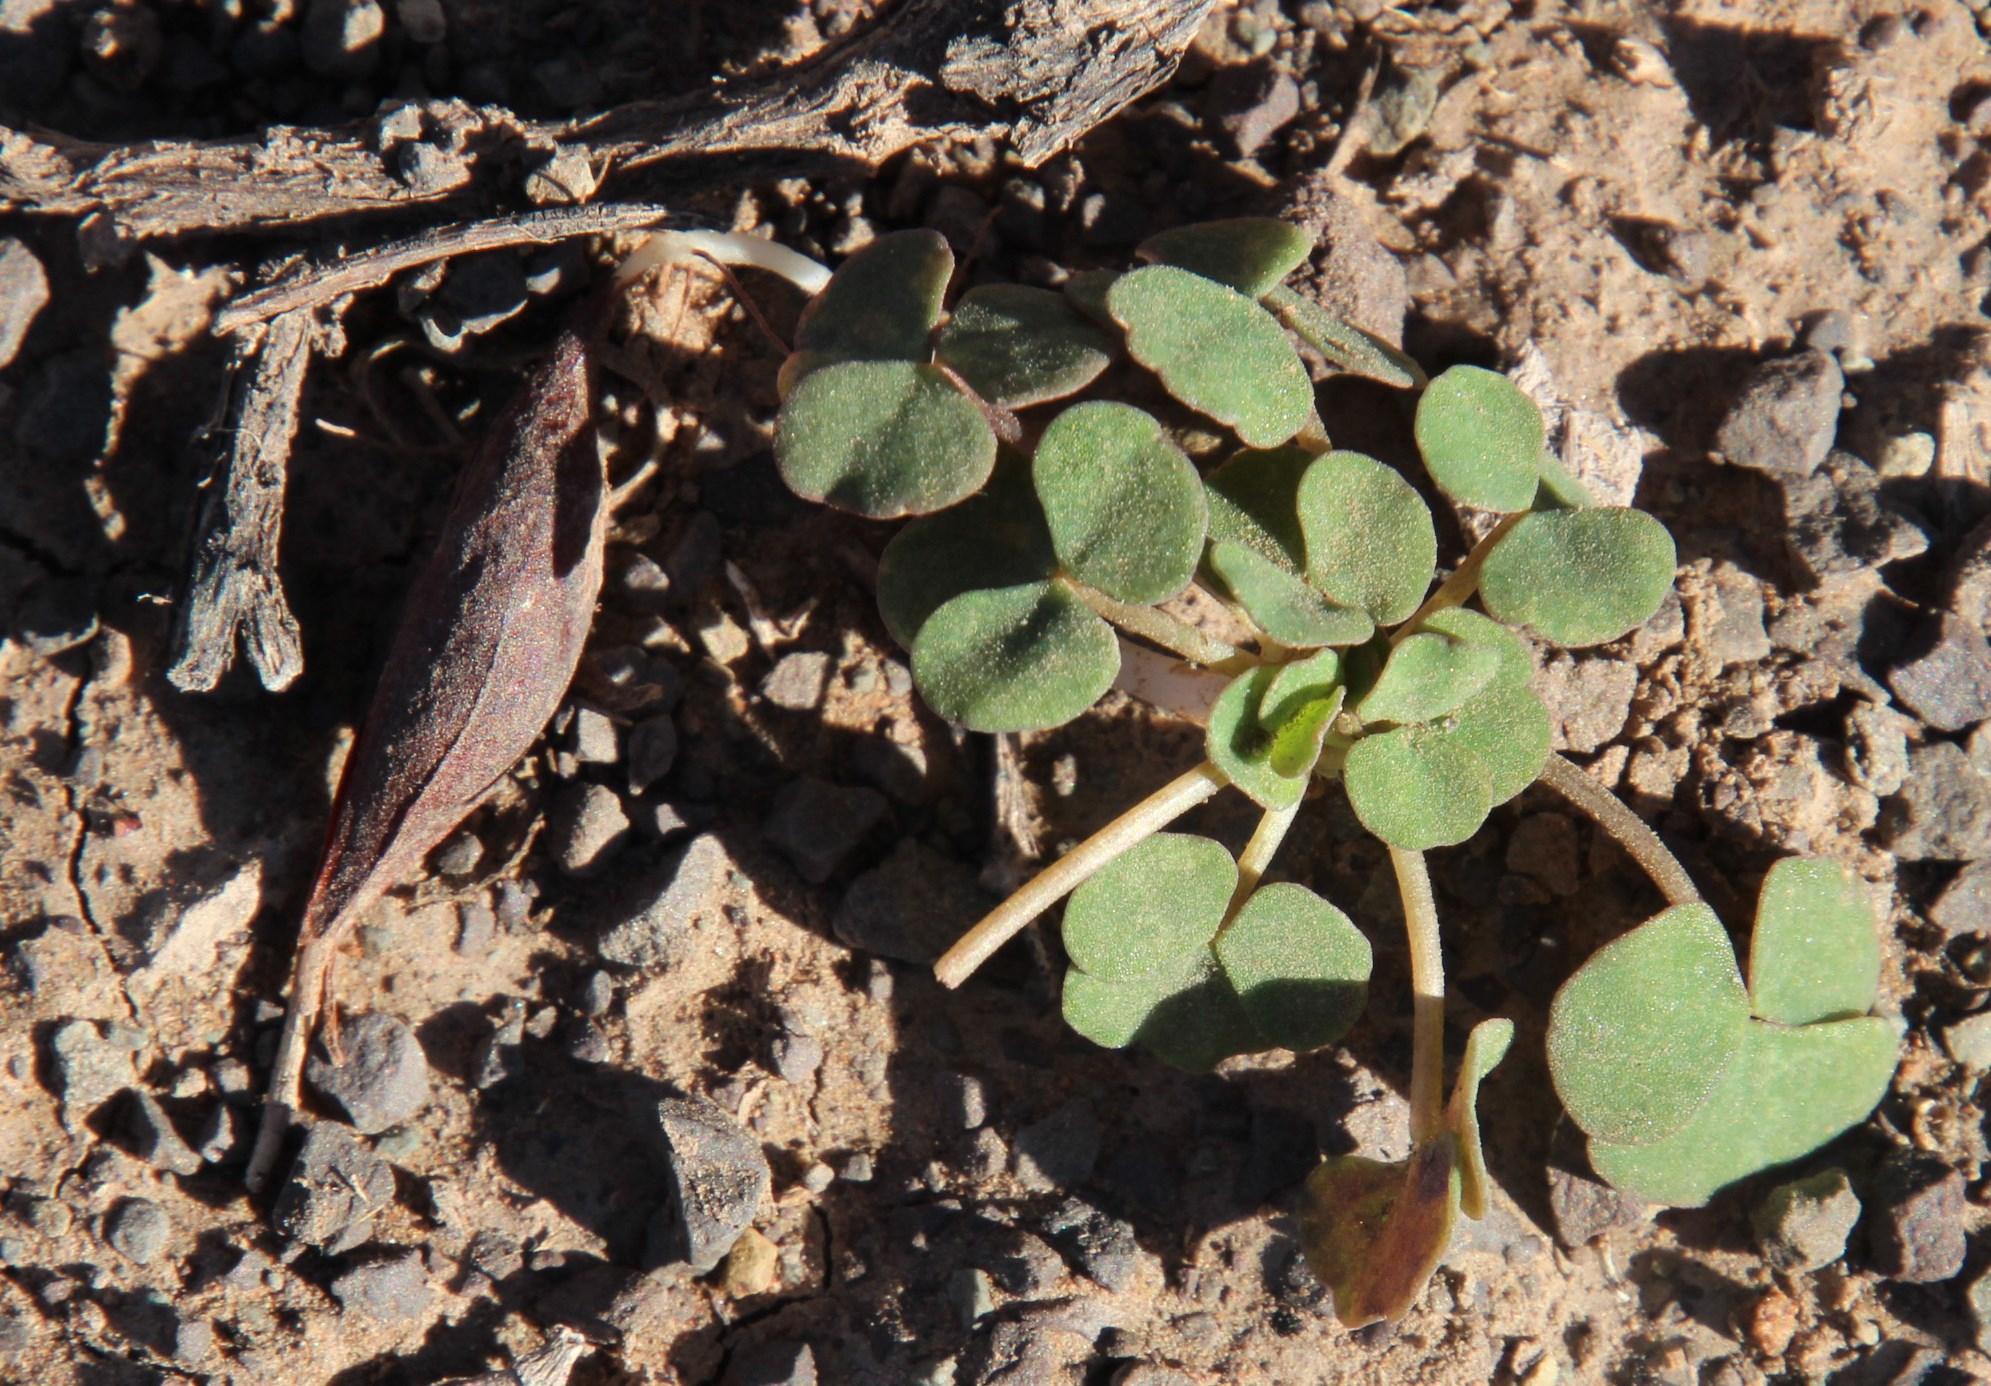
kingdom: Plantae
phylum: Tracheophyta
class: Magnoliopsida
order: Oxalidales
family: Oxalidaceae
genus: Oxalis
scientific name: Oxalis depressa
